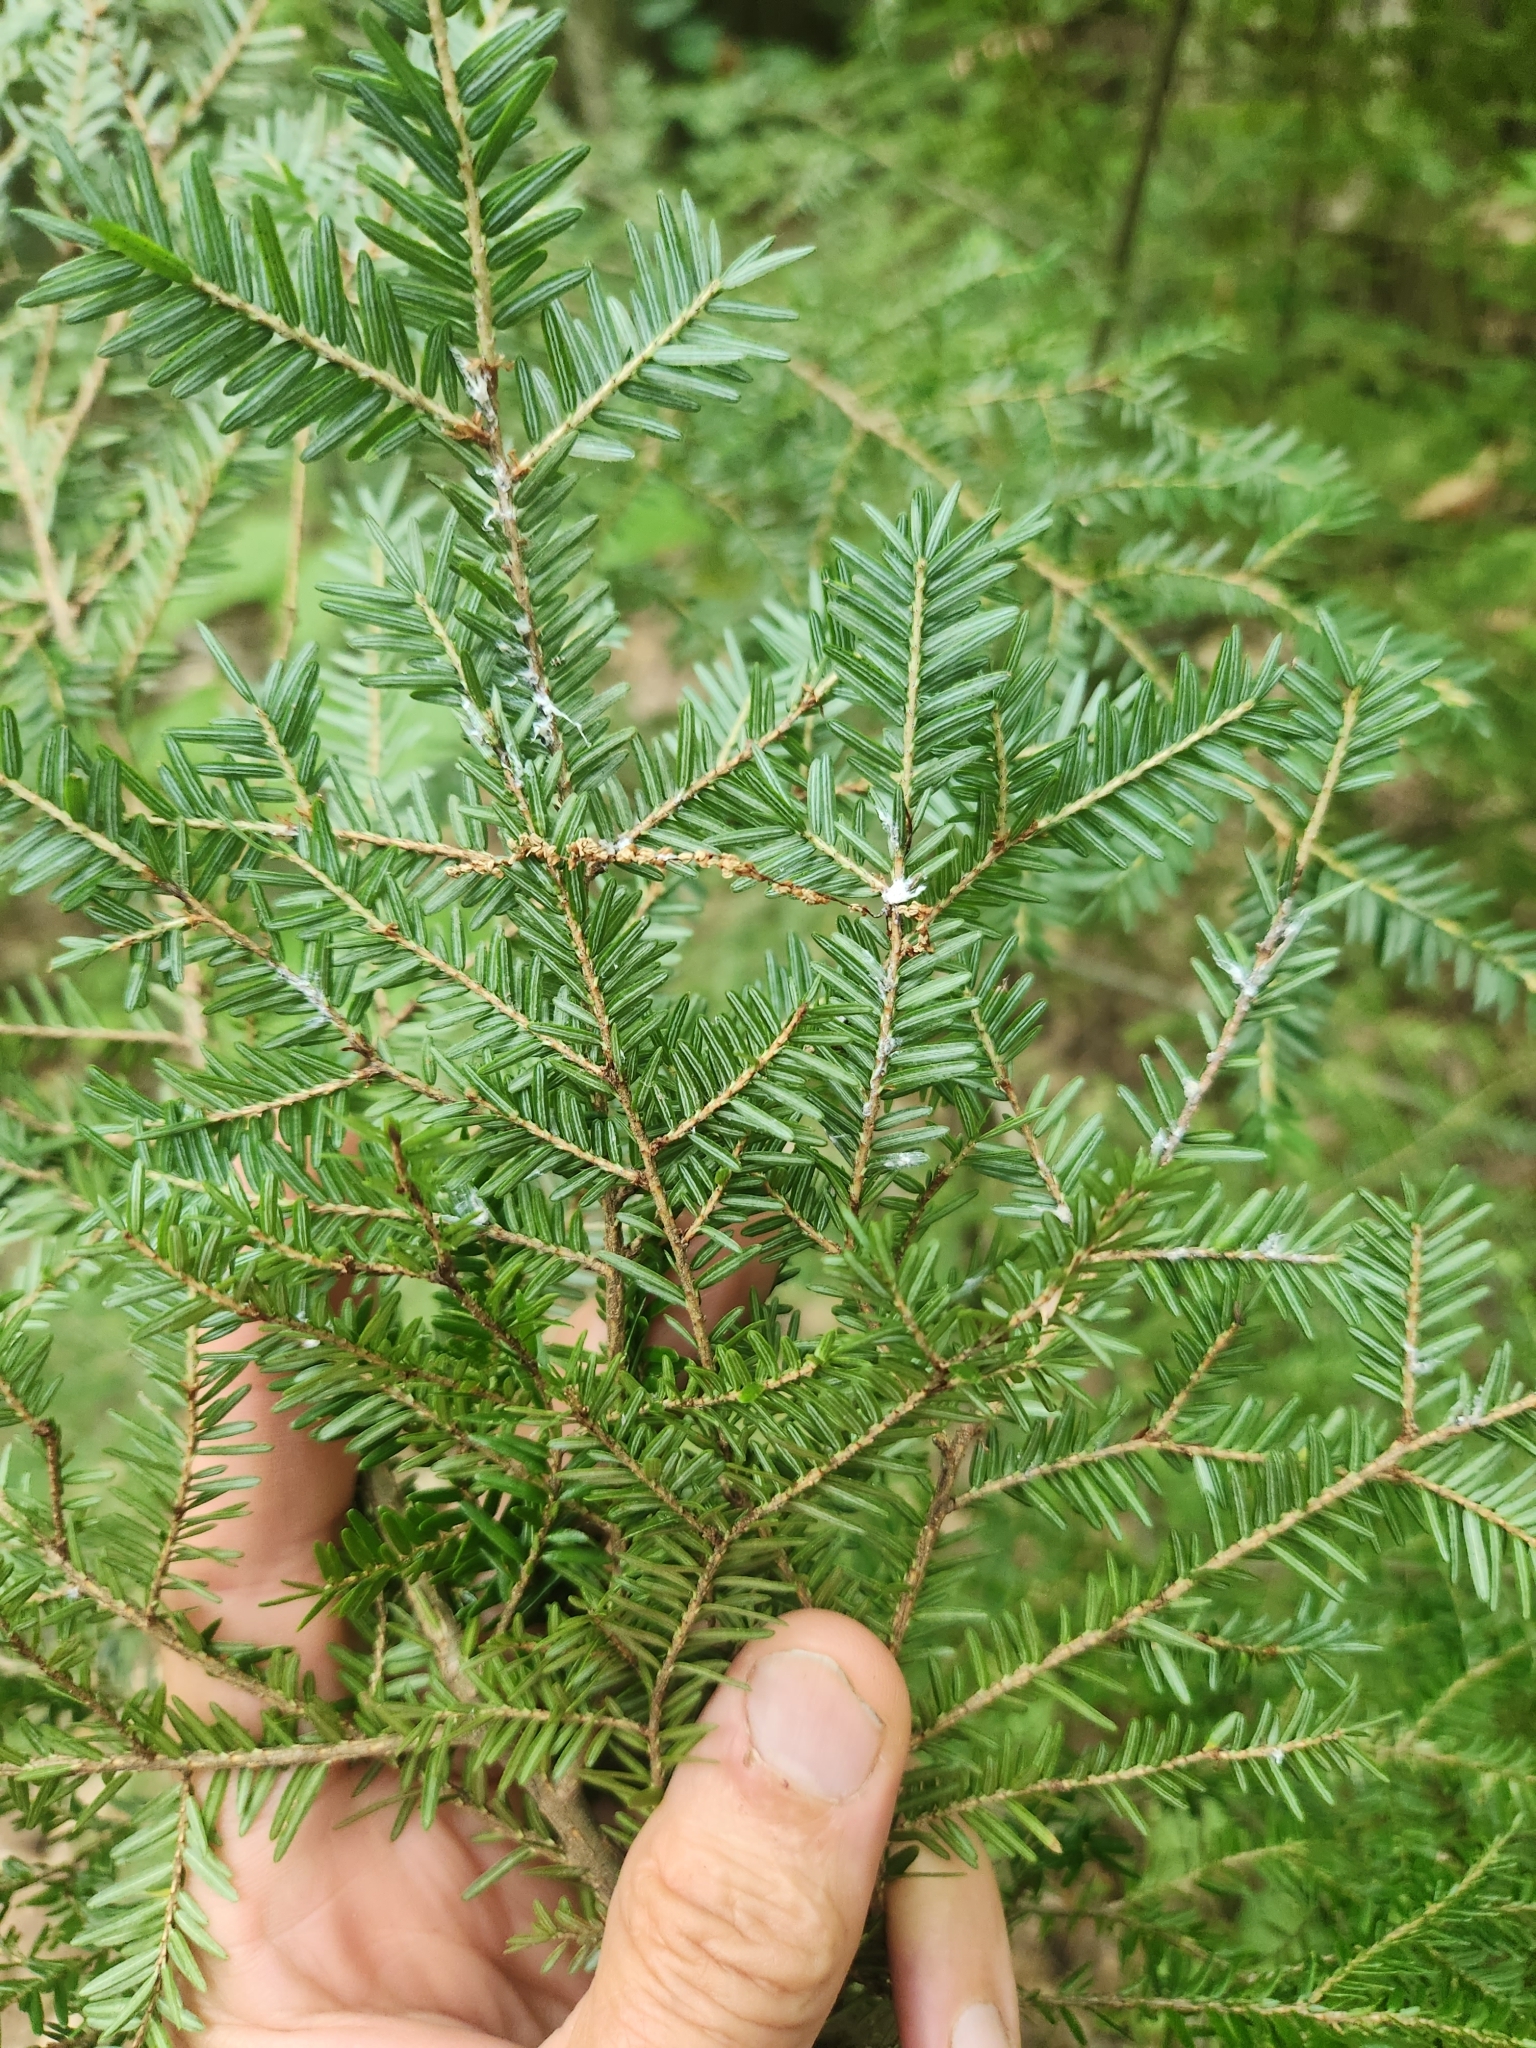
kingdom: Plantae
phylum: Tracheophyta
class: Pinopsida
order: Pinales
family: Pinaceae
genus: Tsuga
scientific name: Tsuga canadensis
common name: Eastern hemlock
